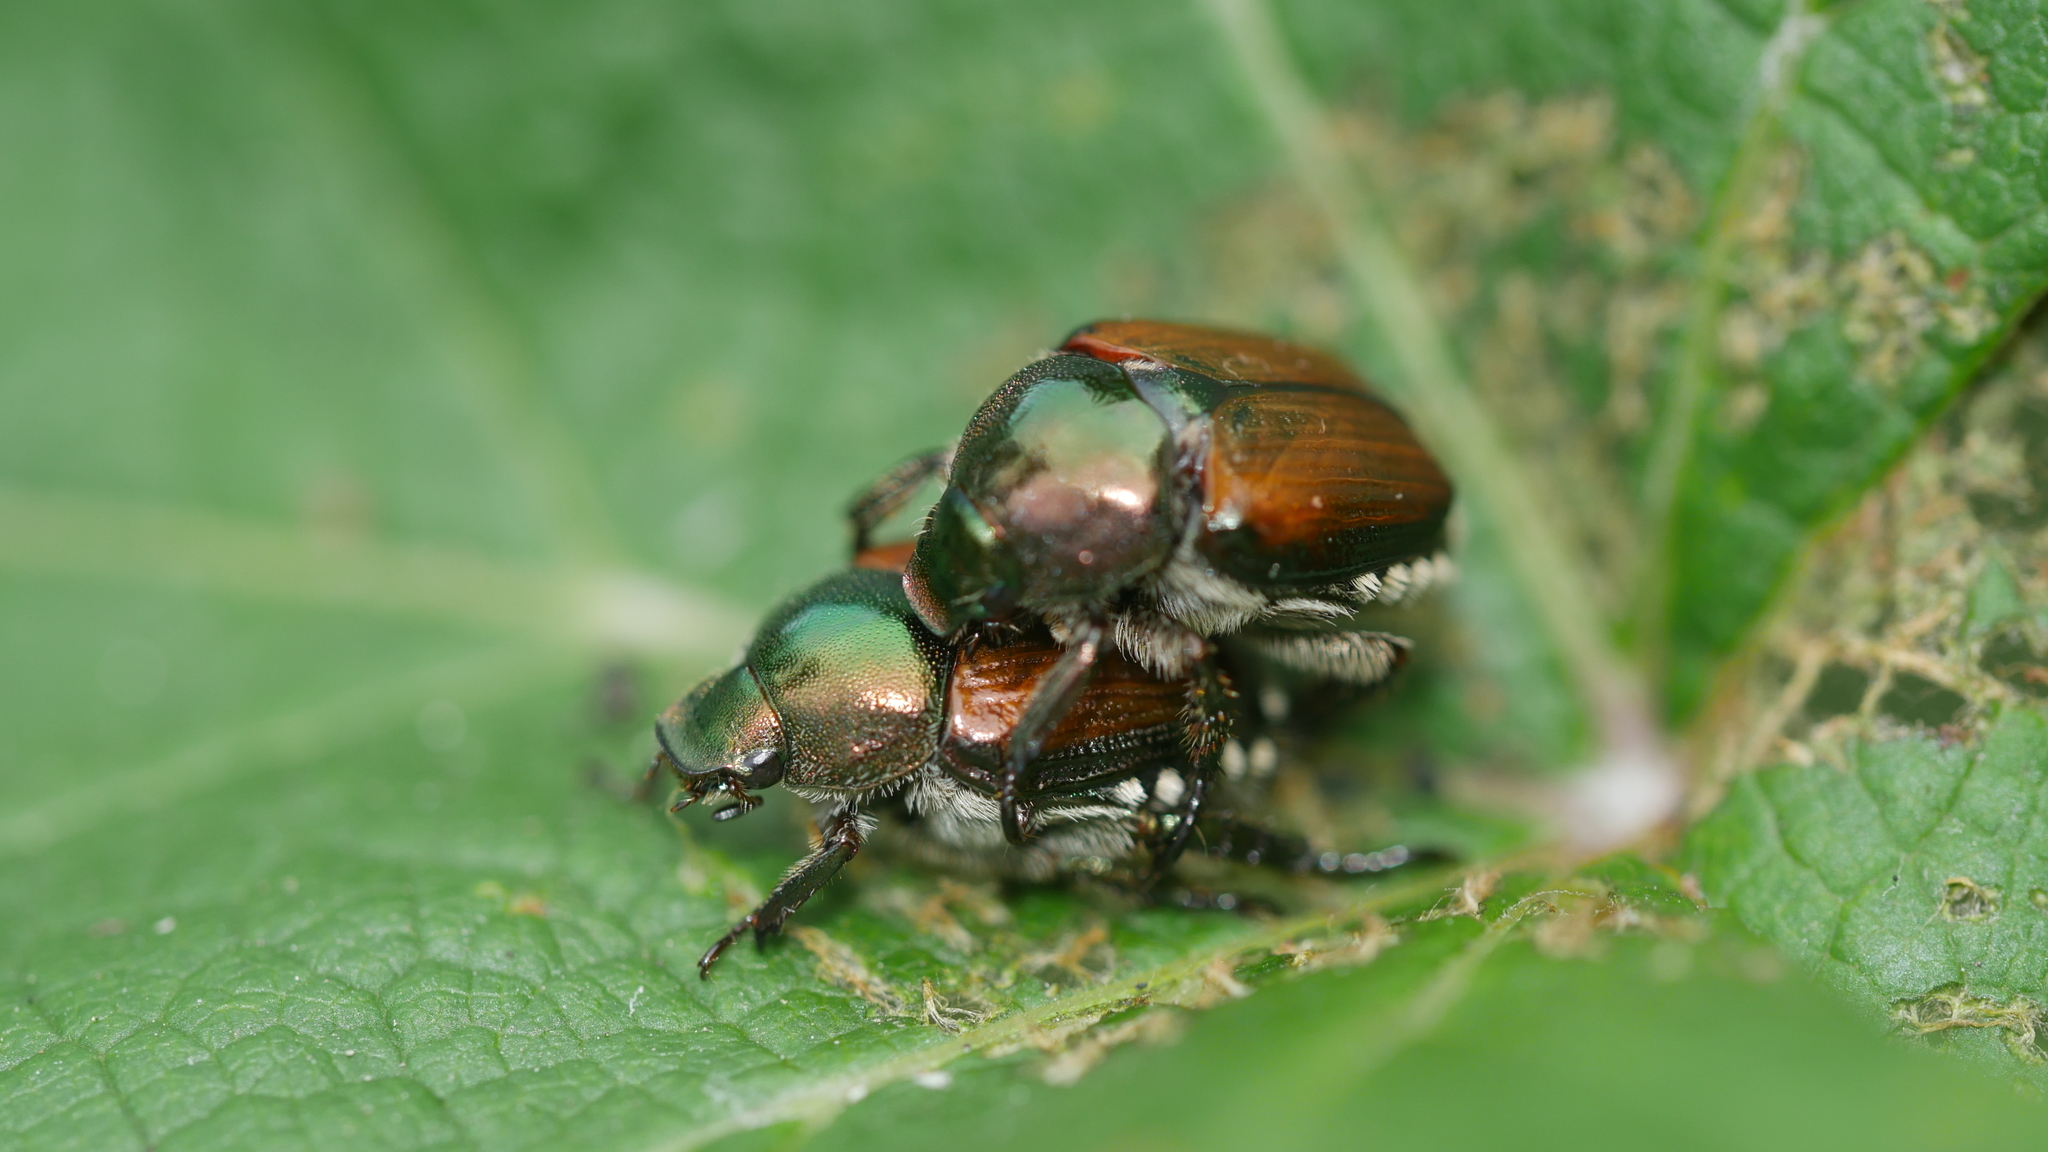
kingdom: Animalia
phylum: Arthropoda
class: Insecta
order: Coleoptera
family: Scarabaeidae
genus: Popillia
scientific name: Popillia japonica
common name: Japanese beetle
